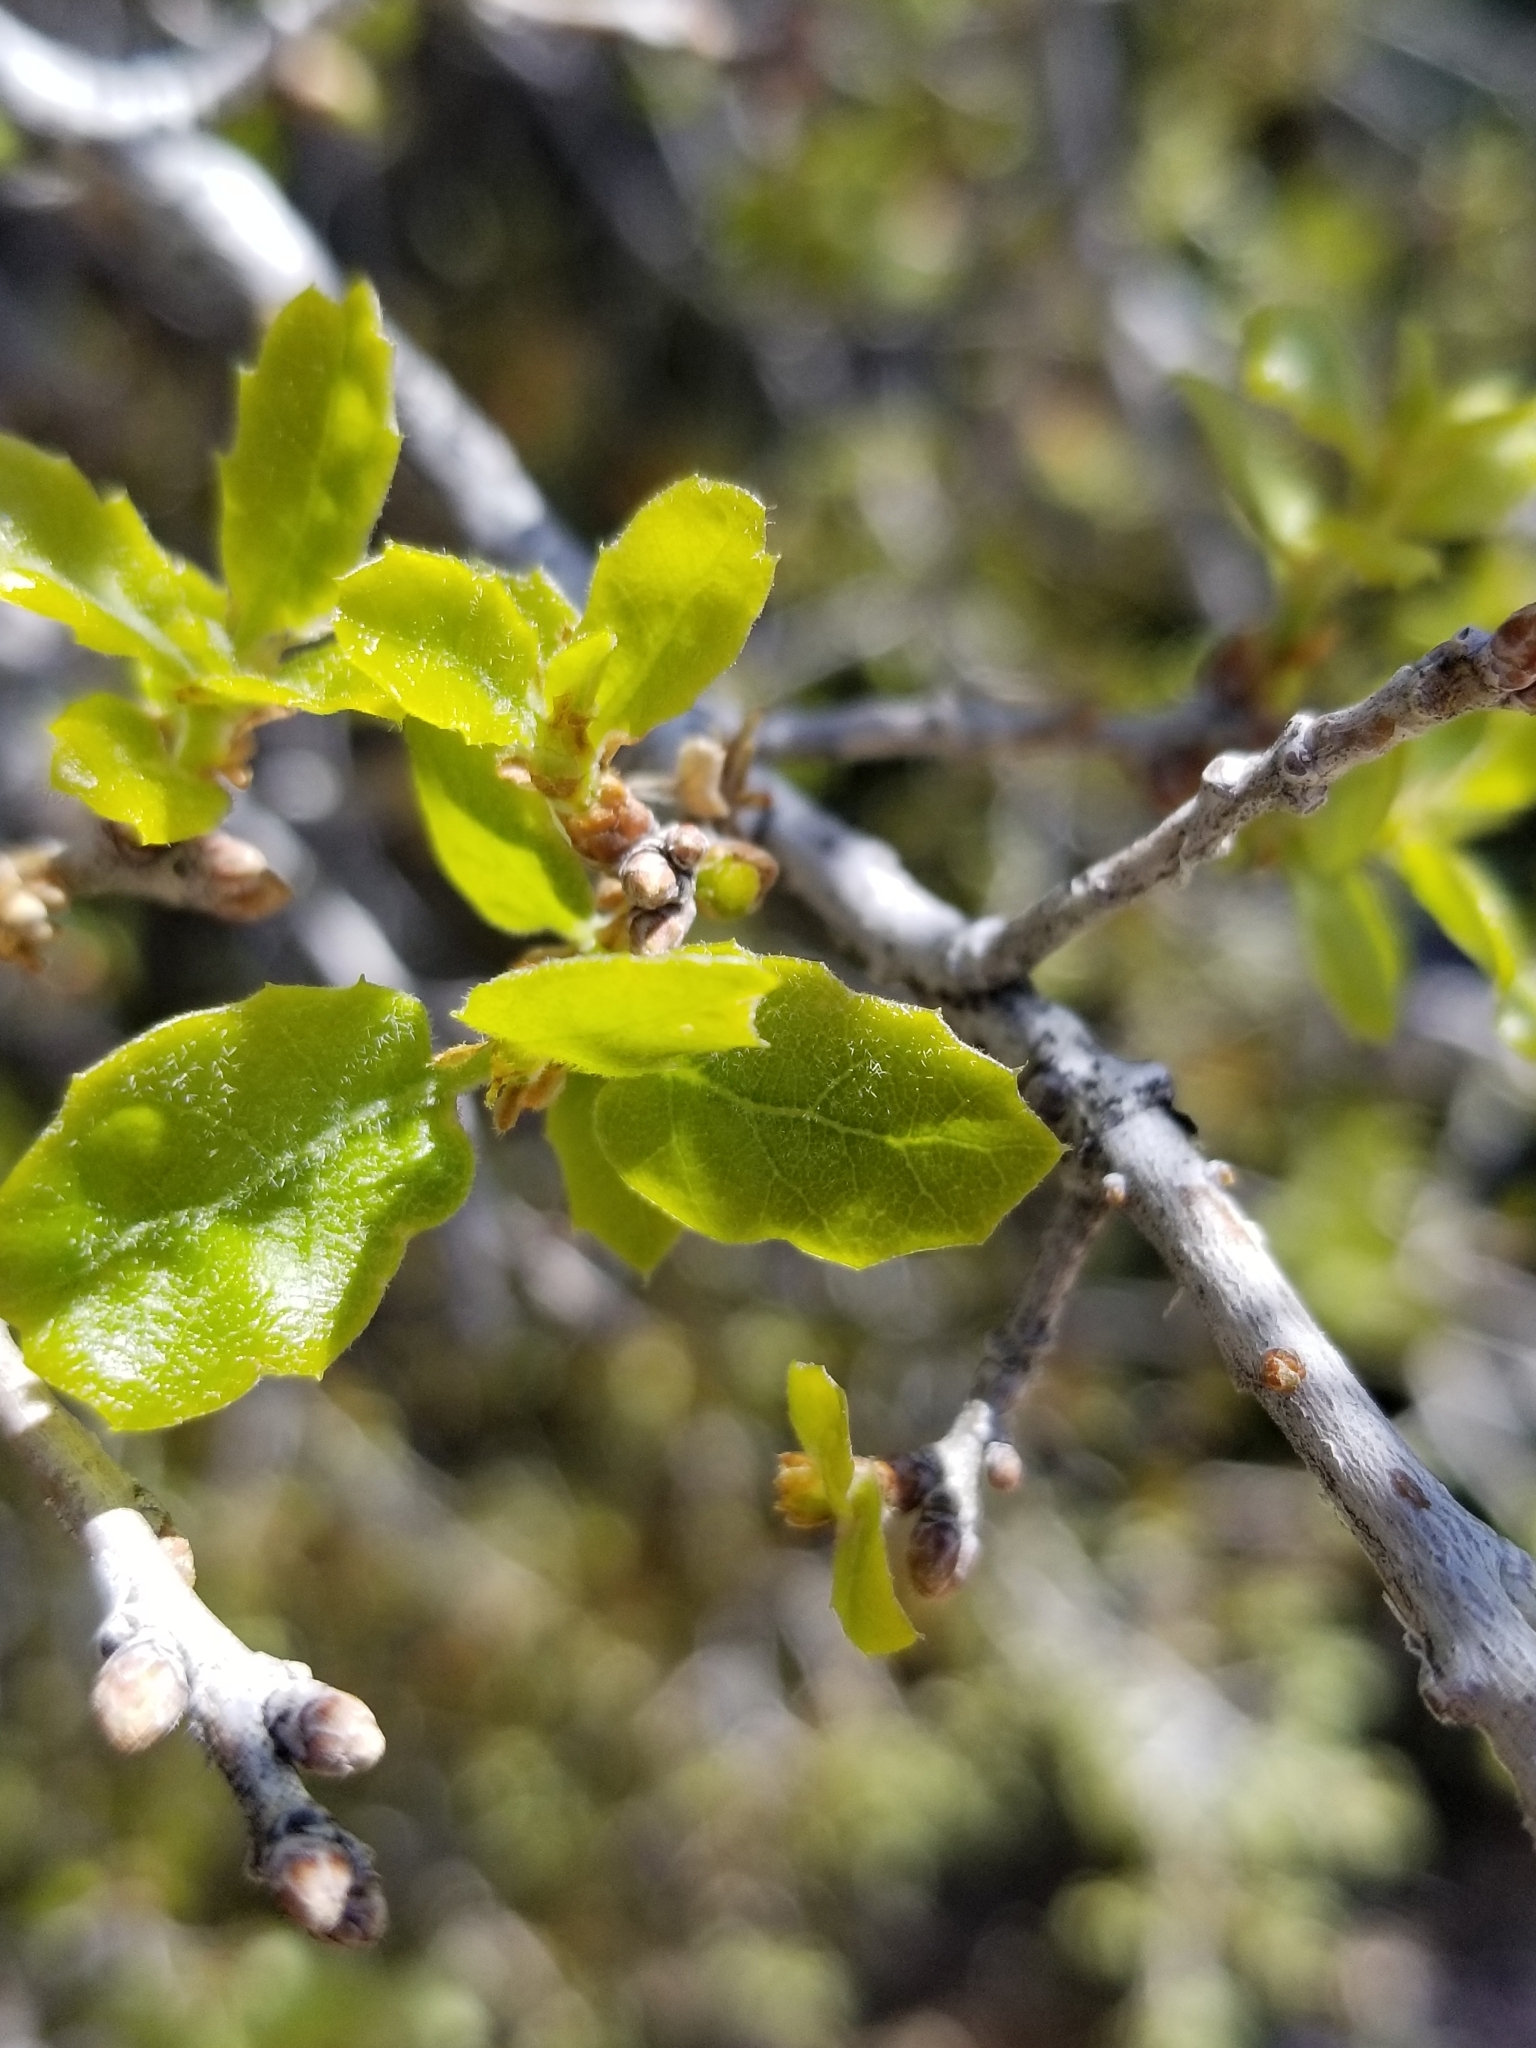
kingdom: Plantae
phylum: Tracheophyta
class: Magnoliopsida
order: Fagales
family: Fagaceae
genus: Quercus
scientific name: Quercus cornelius-mulleri
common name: Muller oak
